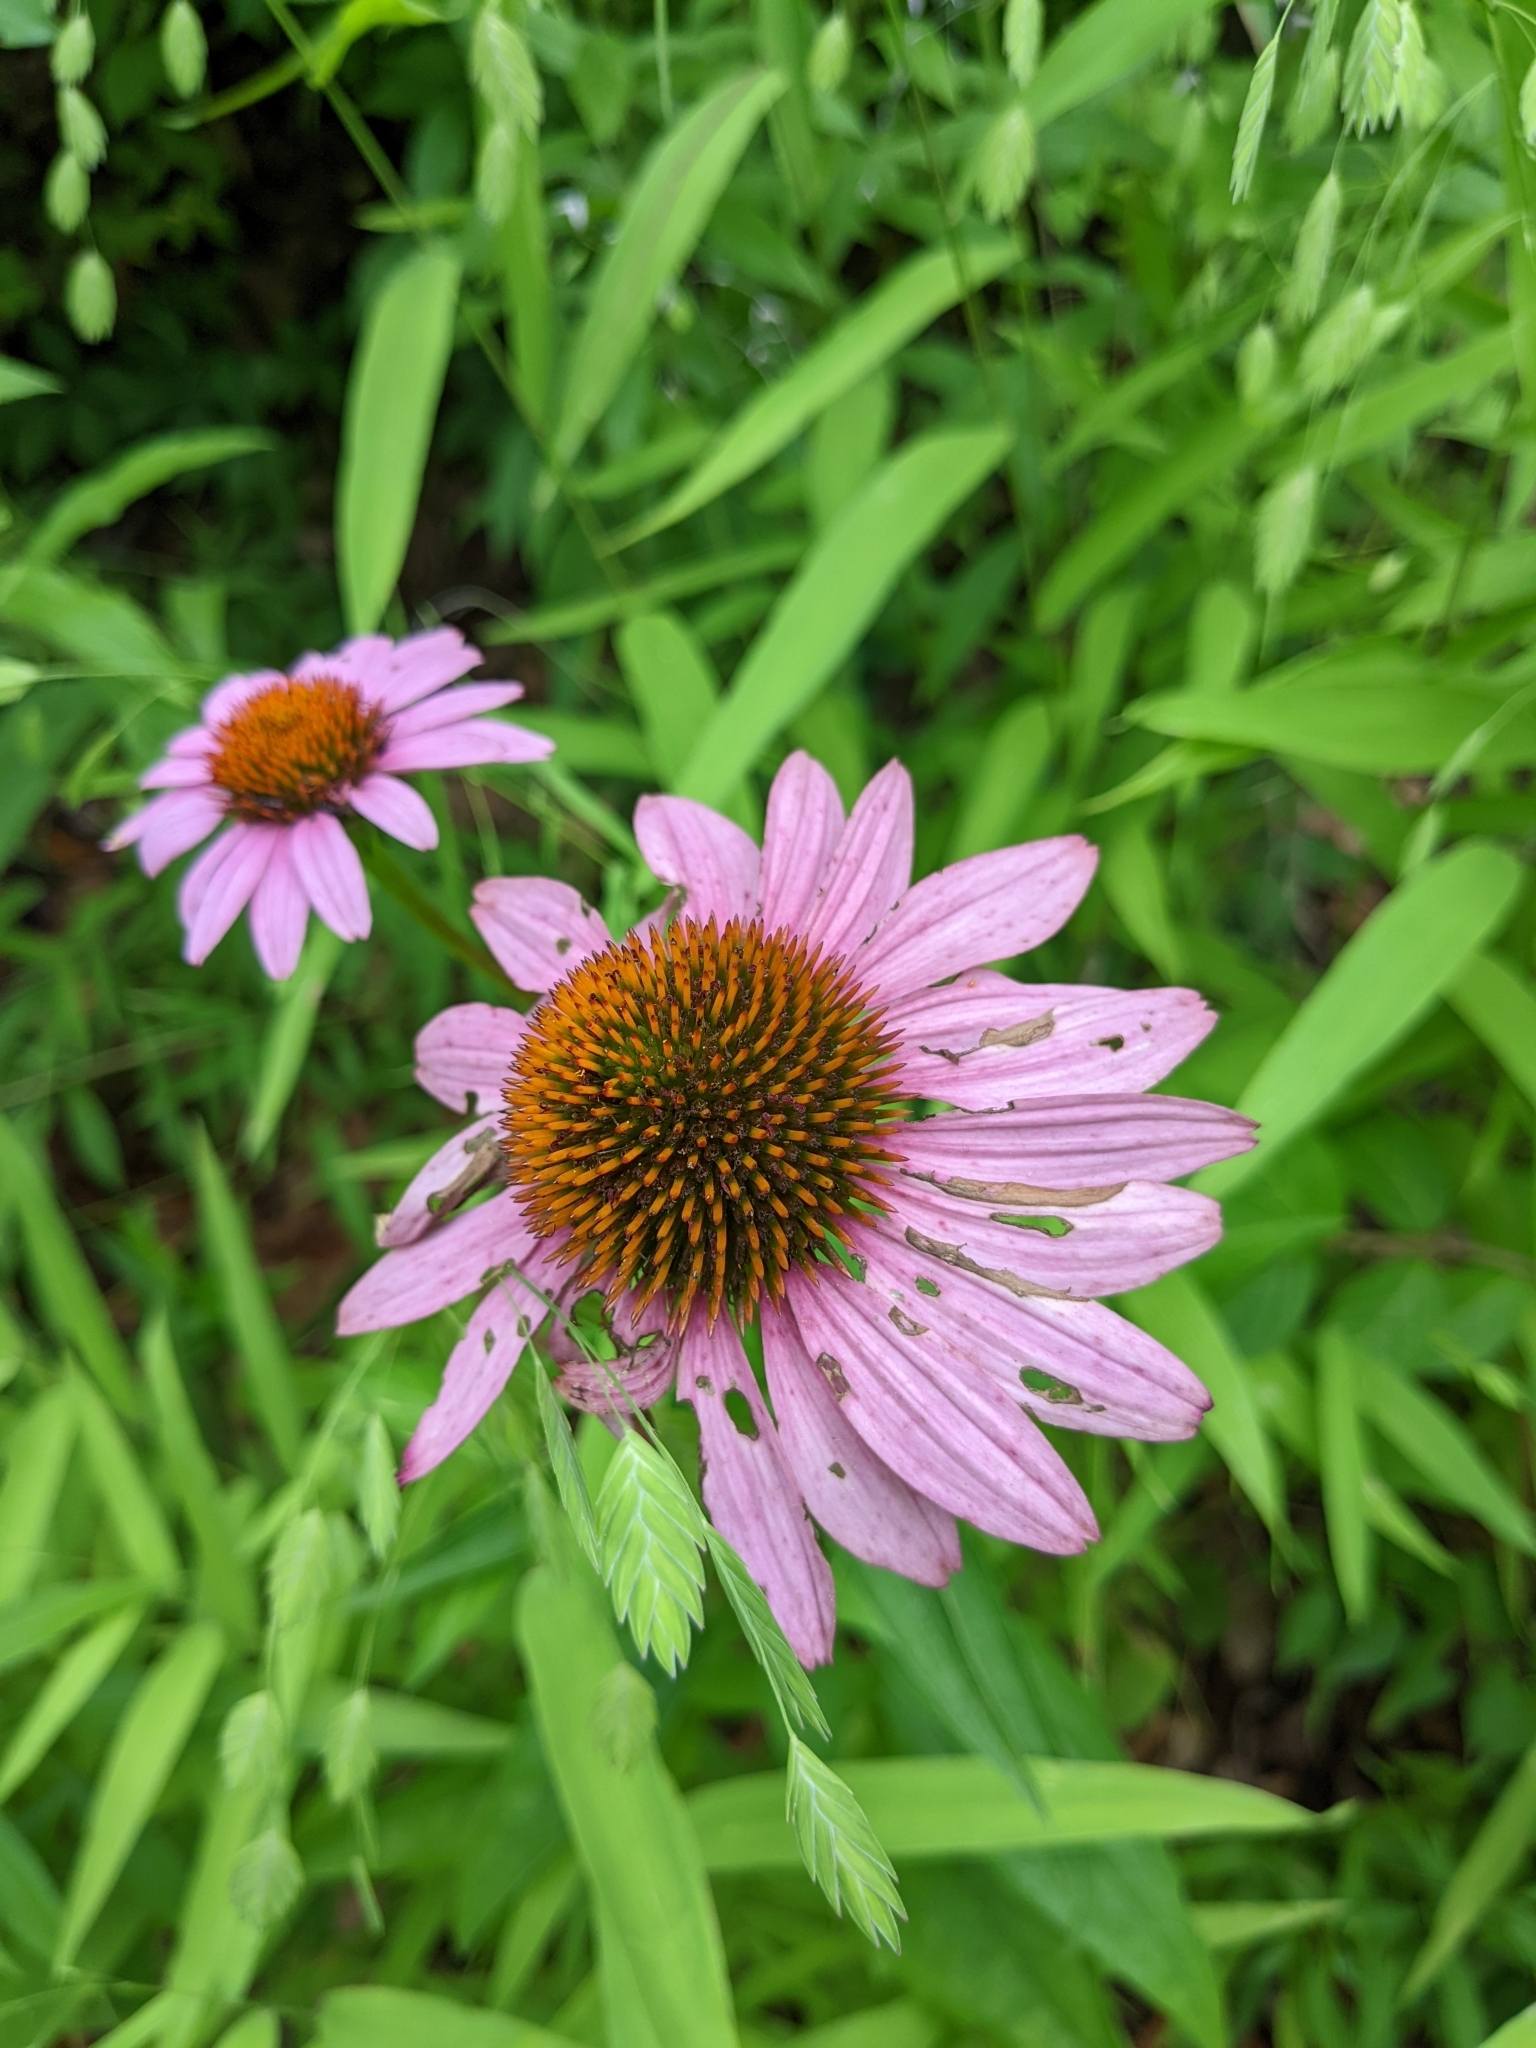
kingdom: Plantae
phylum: Tracheophyta
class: Magnoliopsida
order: Asterales
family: Asteraceae
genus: Echinacea
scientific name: Echinacea purpurea
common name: Broad-leaved purple coneflower
